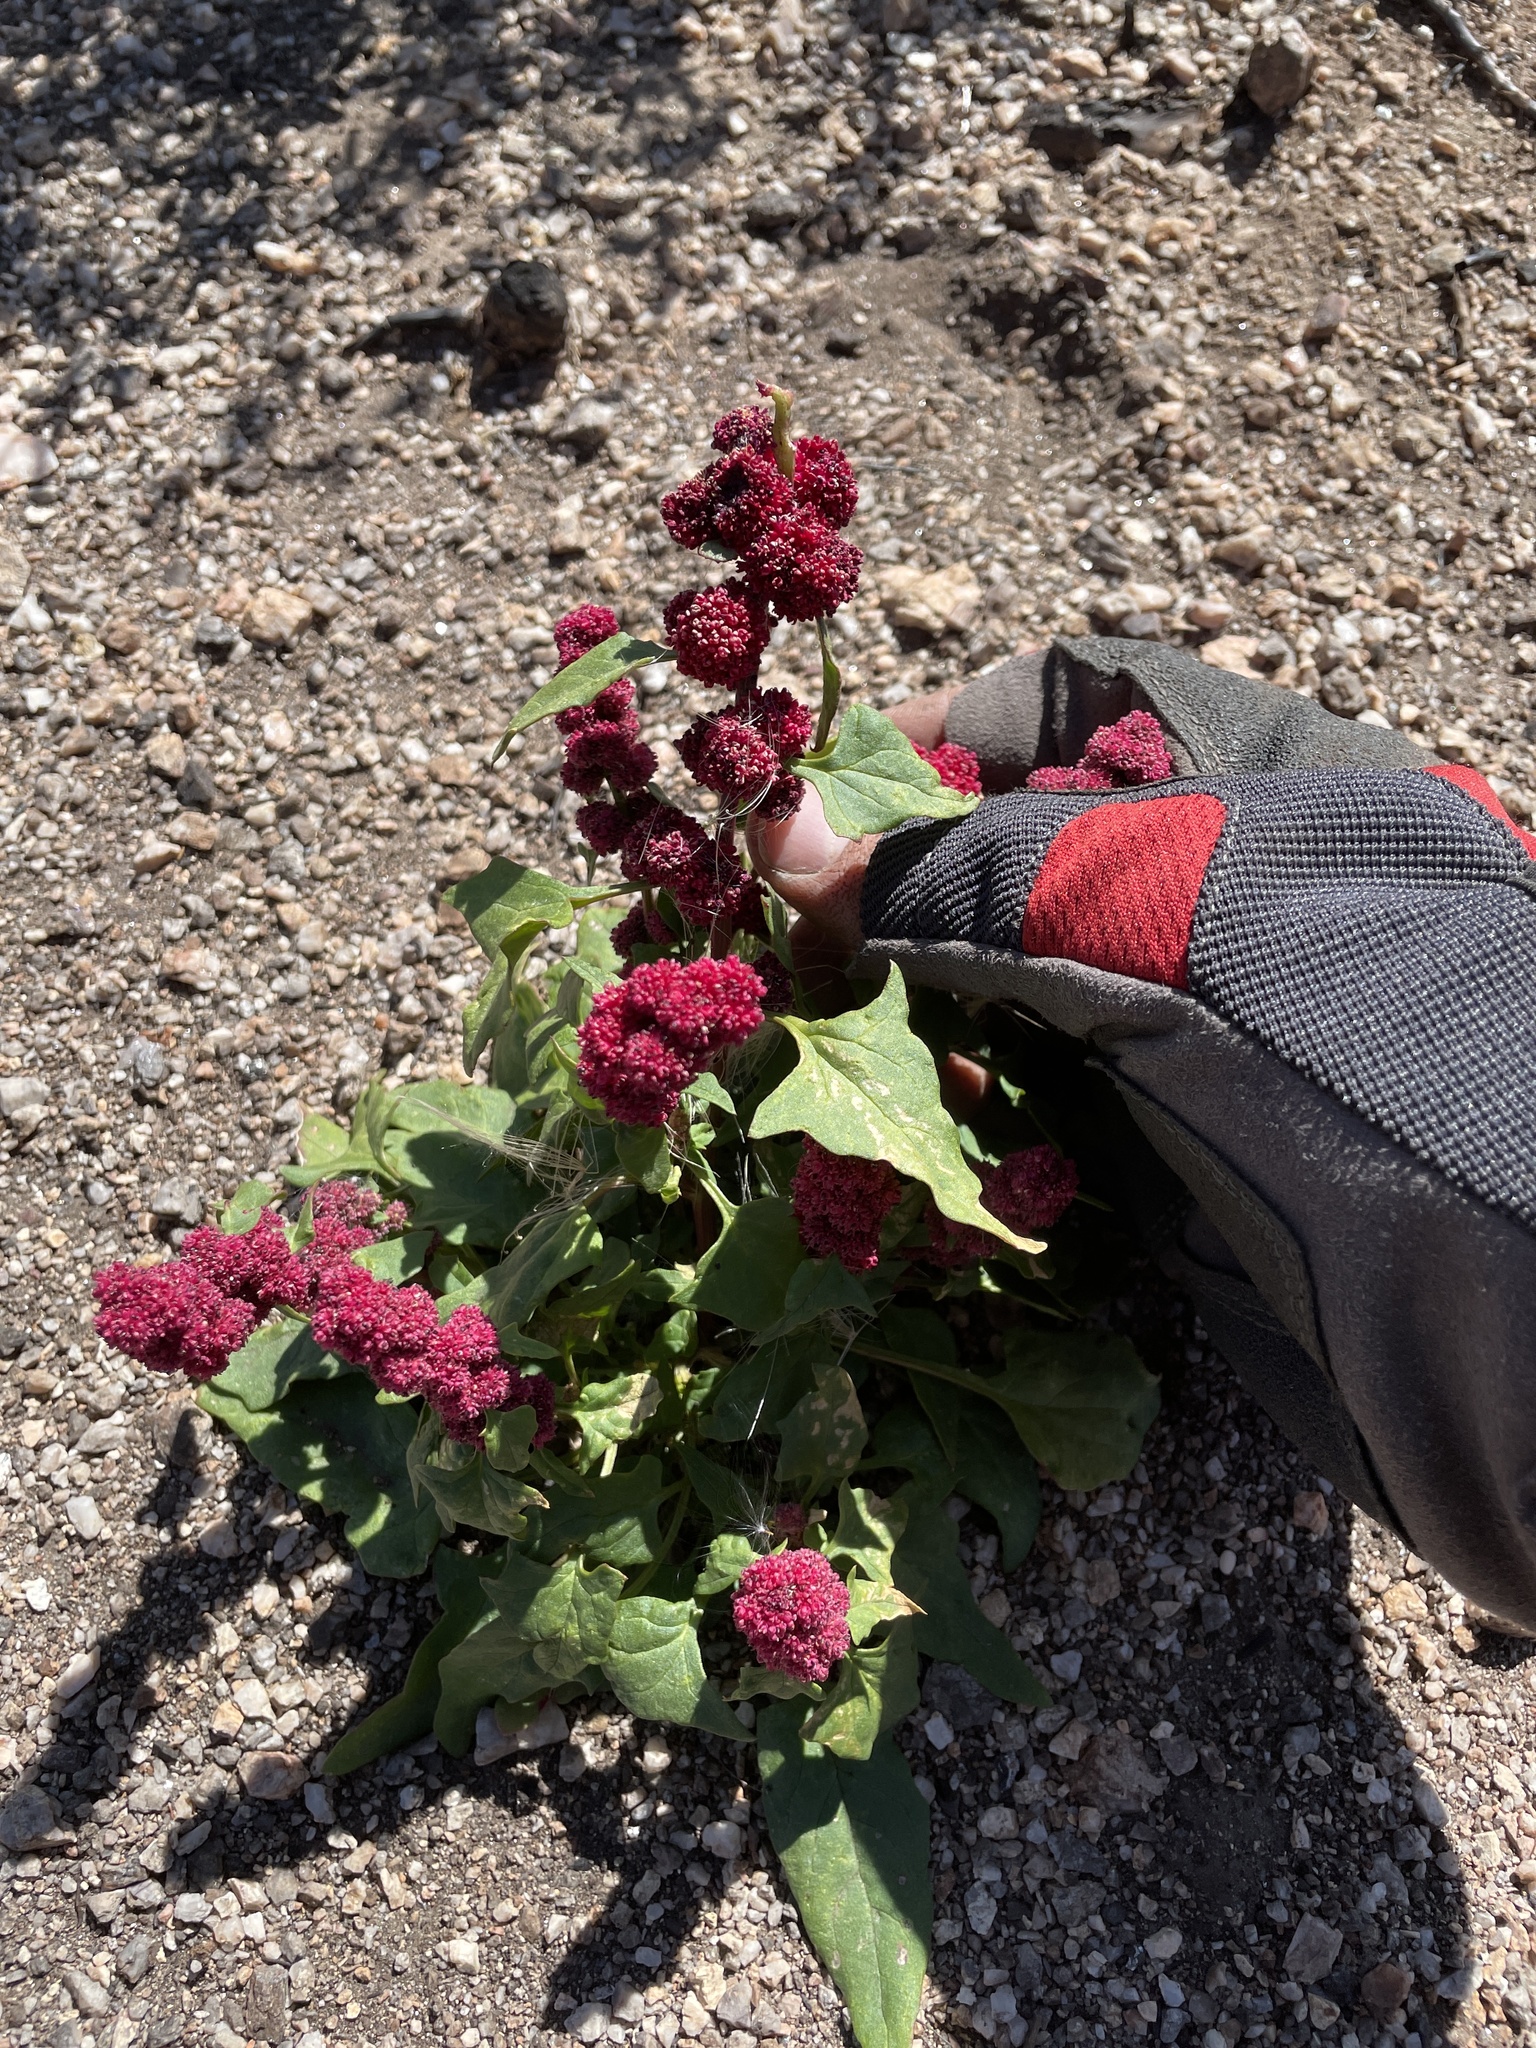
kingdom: Plantae
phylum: Tracheophyta
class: Magnoliopsida
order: Caryophyllales
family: Amaranthaceae
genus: Blitum
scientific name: Blitum capitatum
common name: Strawberry-blight
